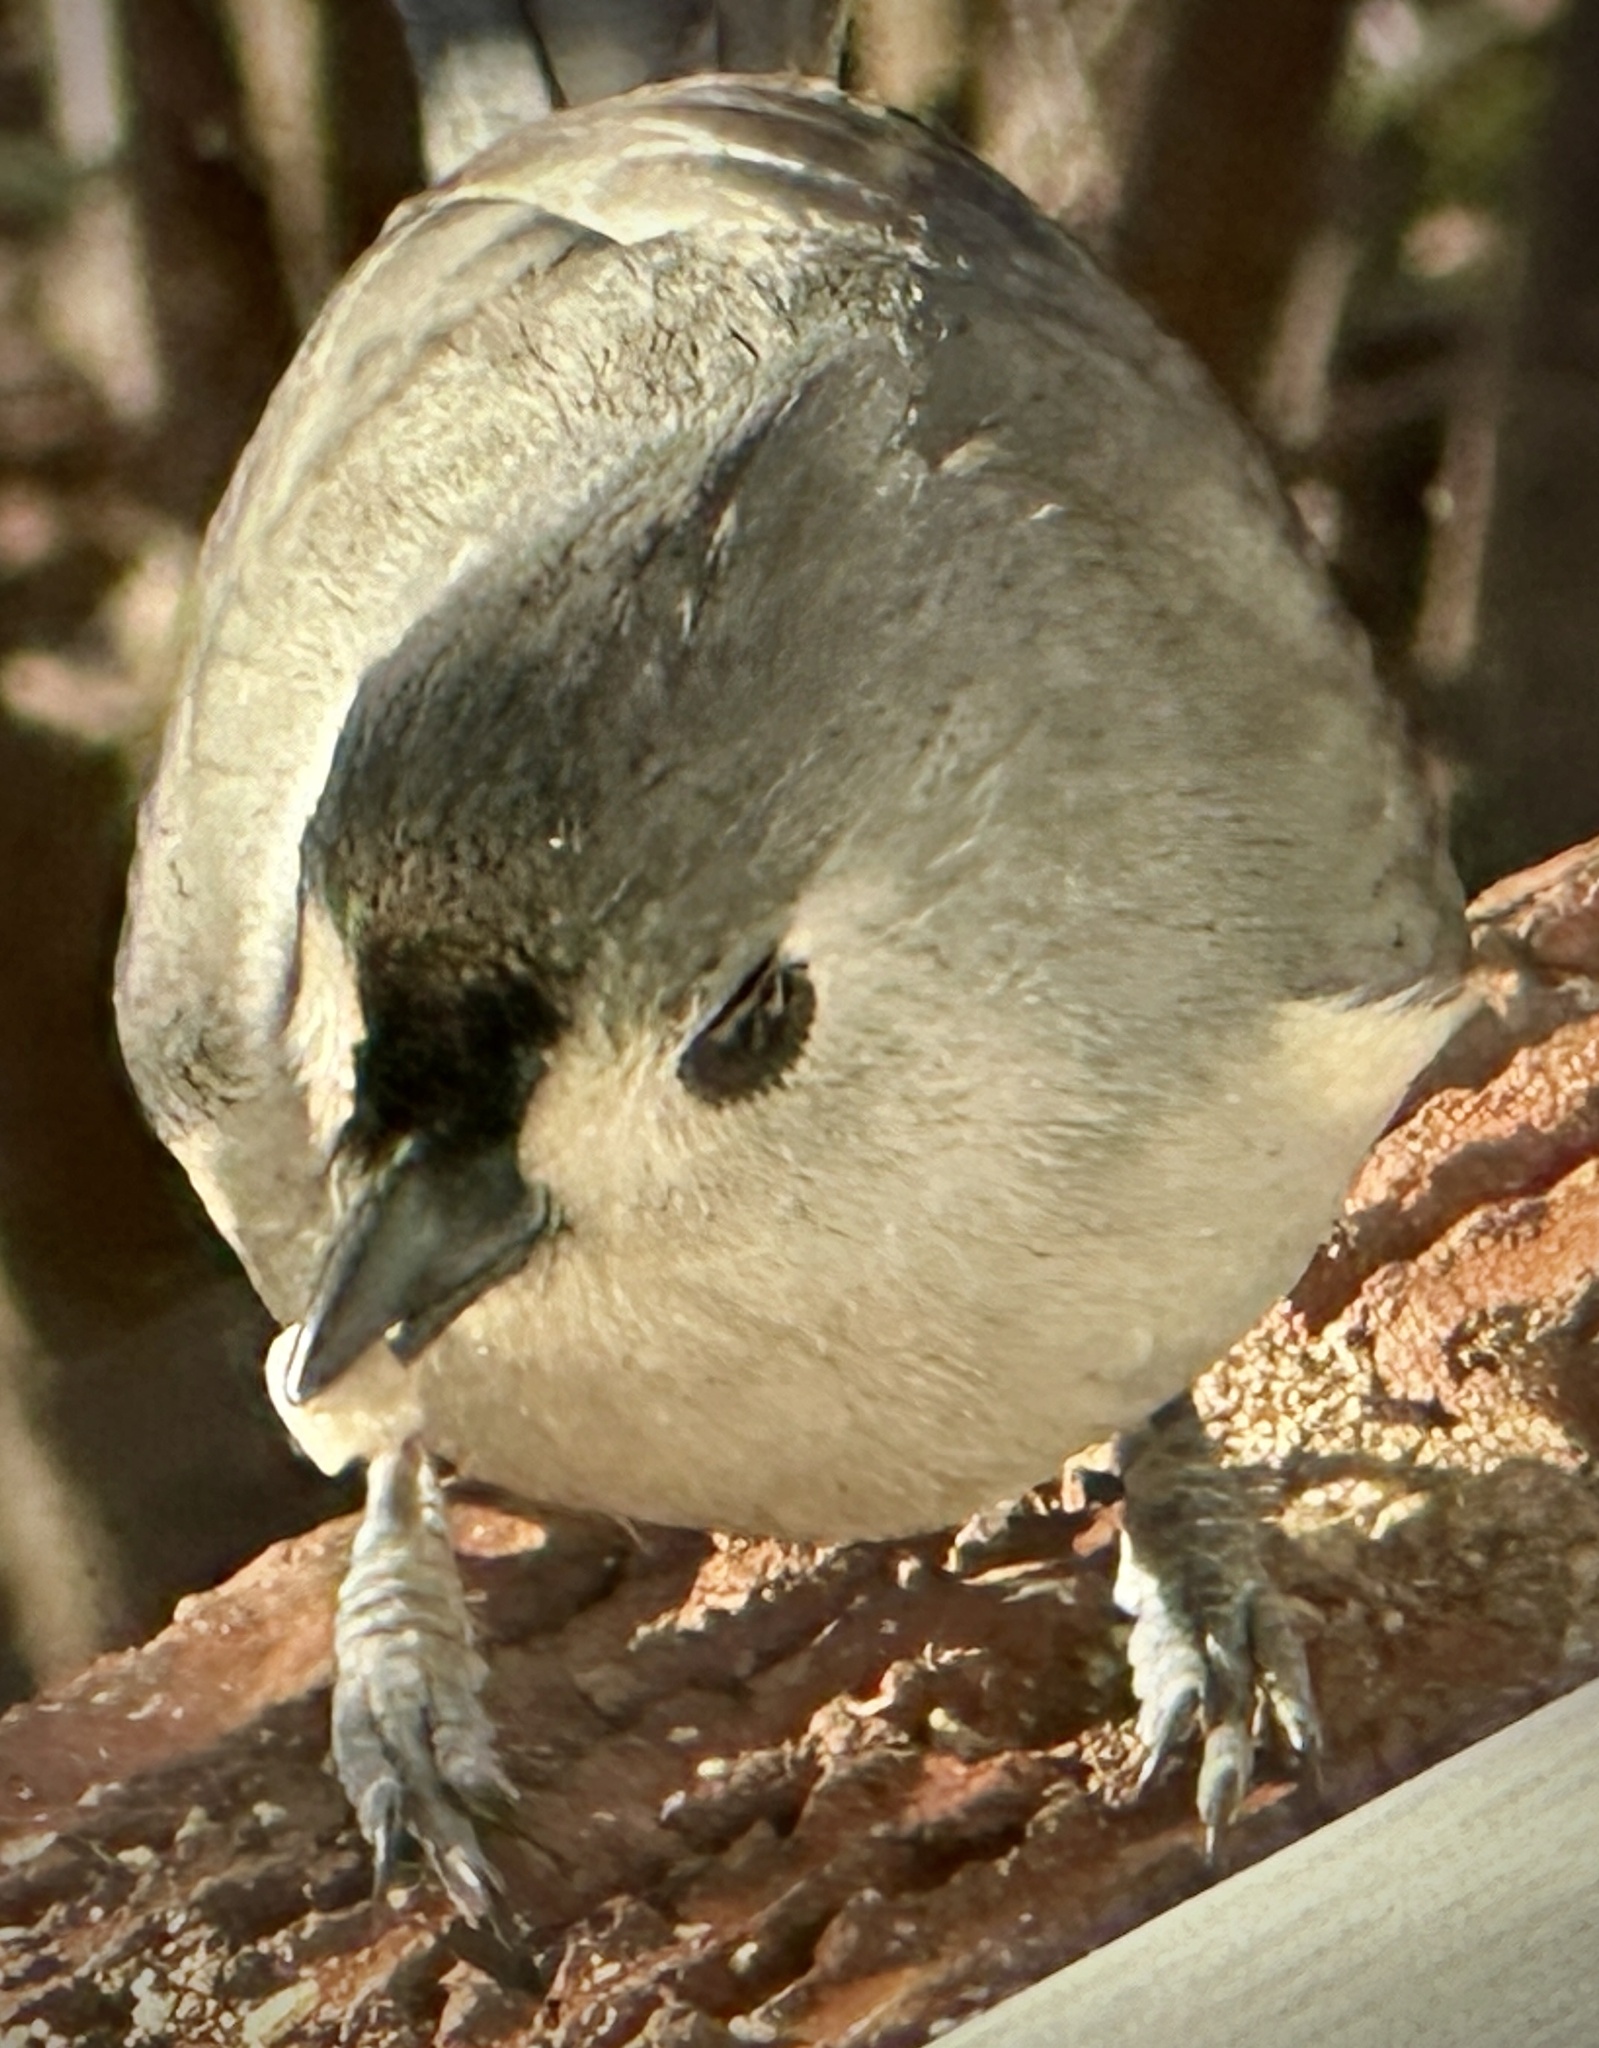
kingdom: Animalia
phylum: Chordata
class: Aves
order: Passeriformes
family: Paridae
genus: Baeolophus
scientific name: Baeolophus bicolor
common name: Tufted titmouse
